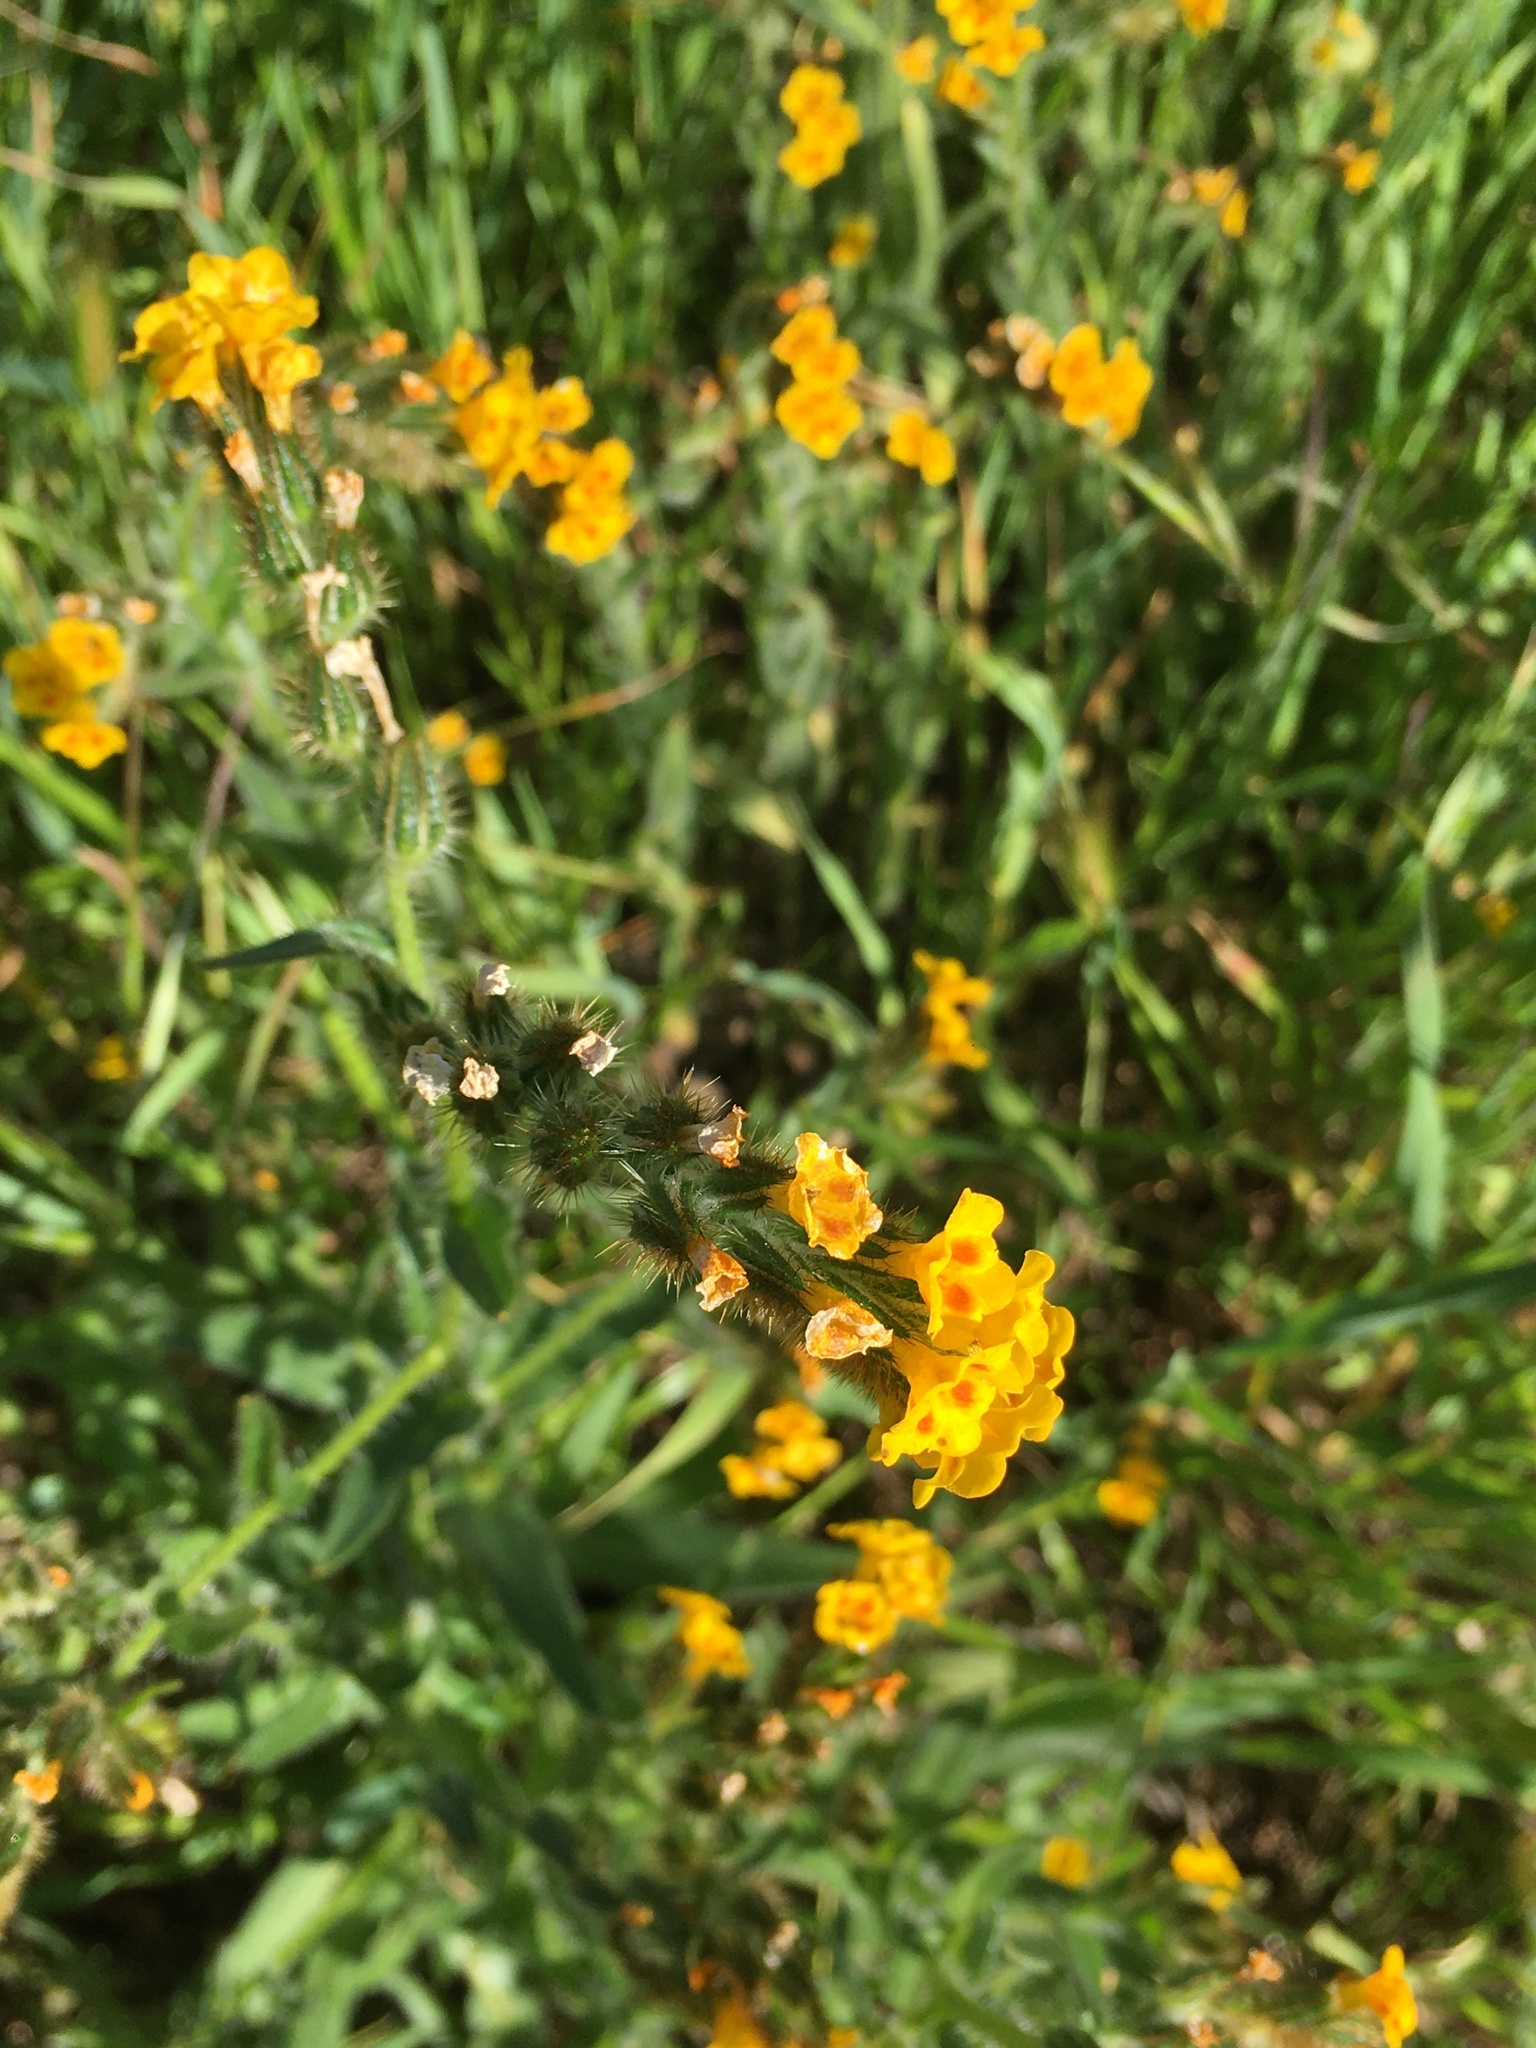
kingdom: Plantae
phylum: Tracheophyta
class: Magnoliopsida
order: Boraginales
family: Boraginaceae
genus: Amsinckia
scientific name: Amsinckia menziesii
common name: Menzies' fiddleneck
